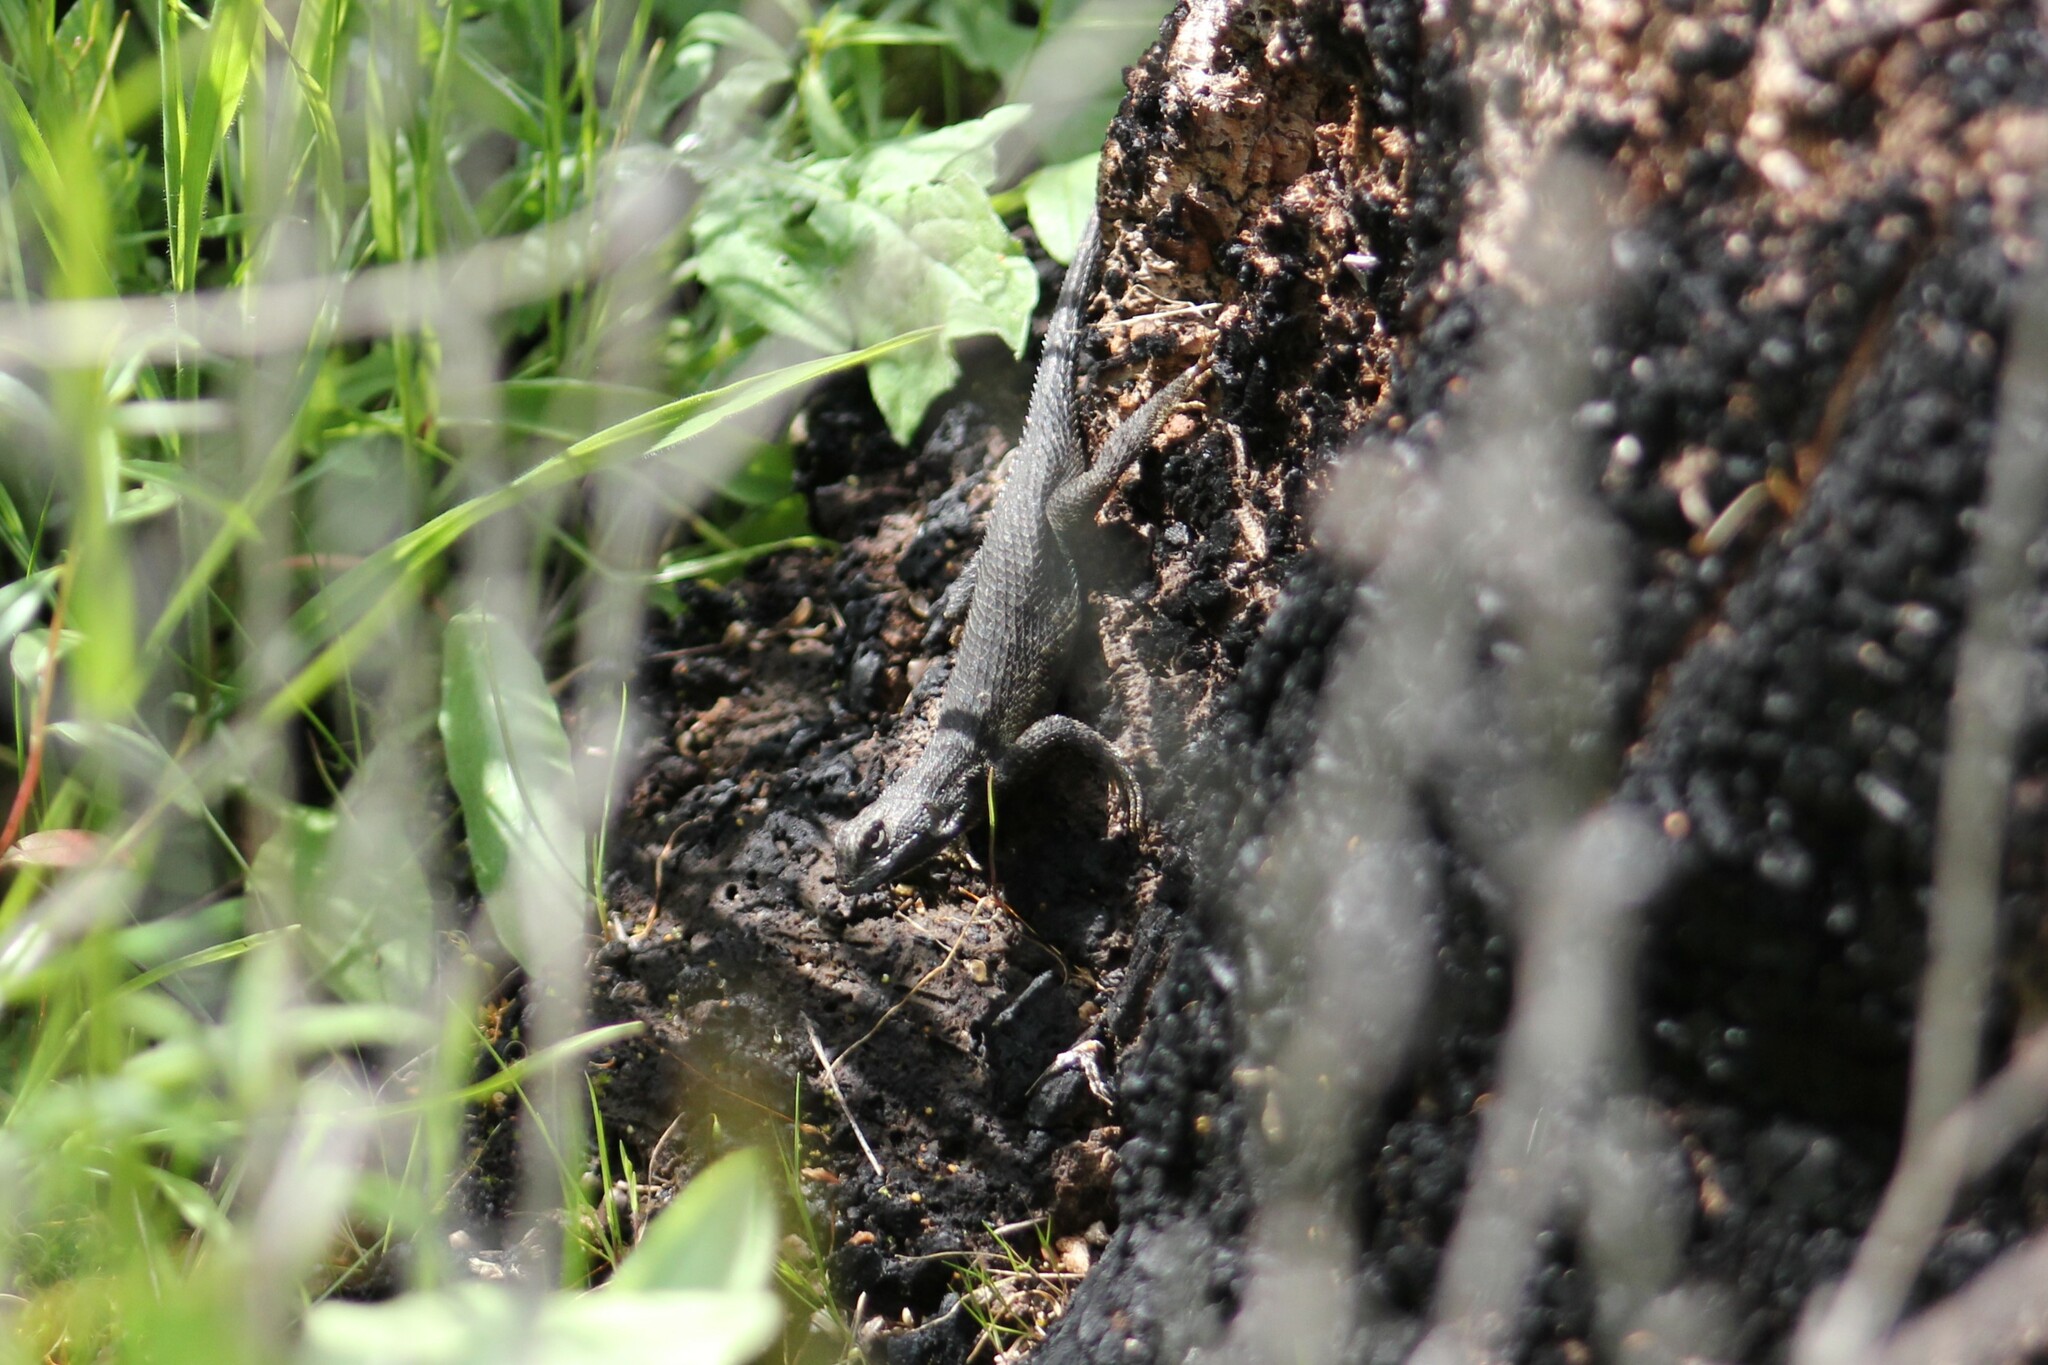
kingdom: Animalia
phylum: Chordata
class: Squamata
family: Phrynosomatidae
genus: Sceloporus
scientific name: Sceloporus occidentalis
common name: Western fence lizard
